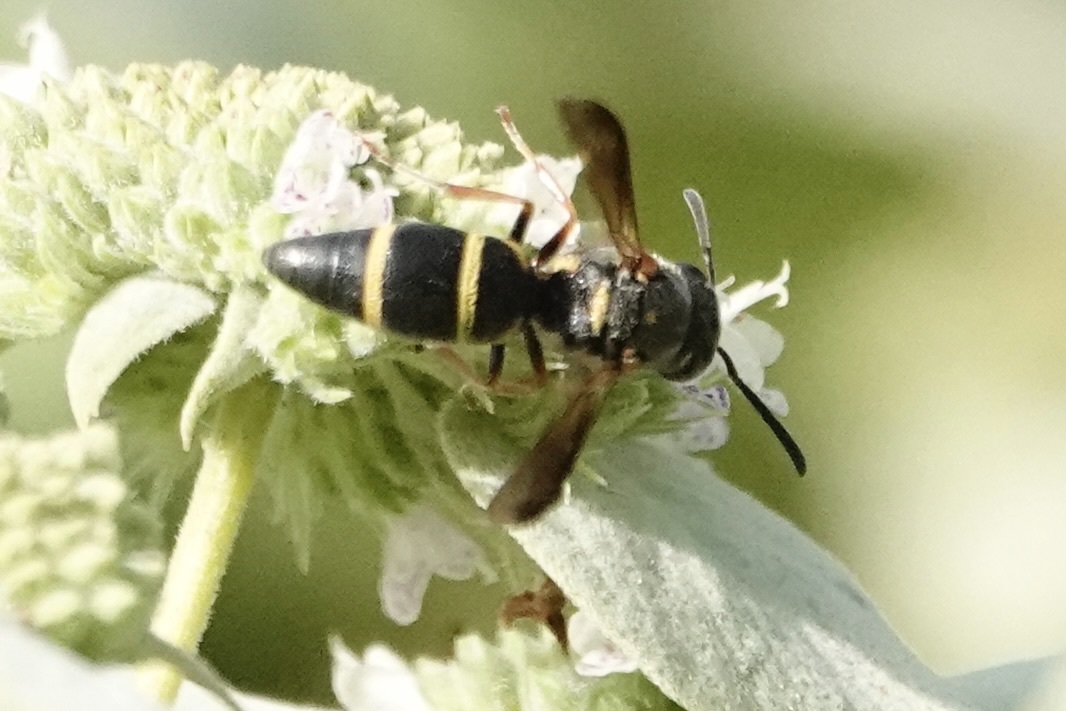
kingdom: Animalia
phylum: Arthropoda
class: Insecta
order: Hymenoptera
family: Eumenidae
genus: Parancistrocerus
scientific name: Parancistrocerus fulvipes
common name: Potter wasp
